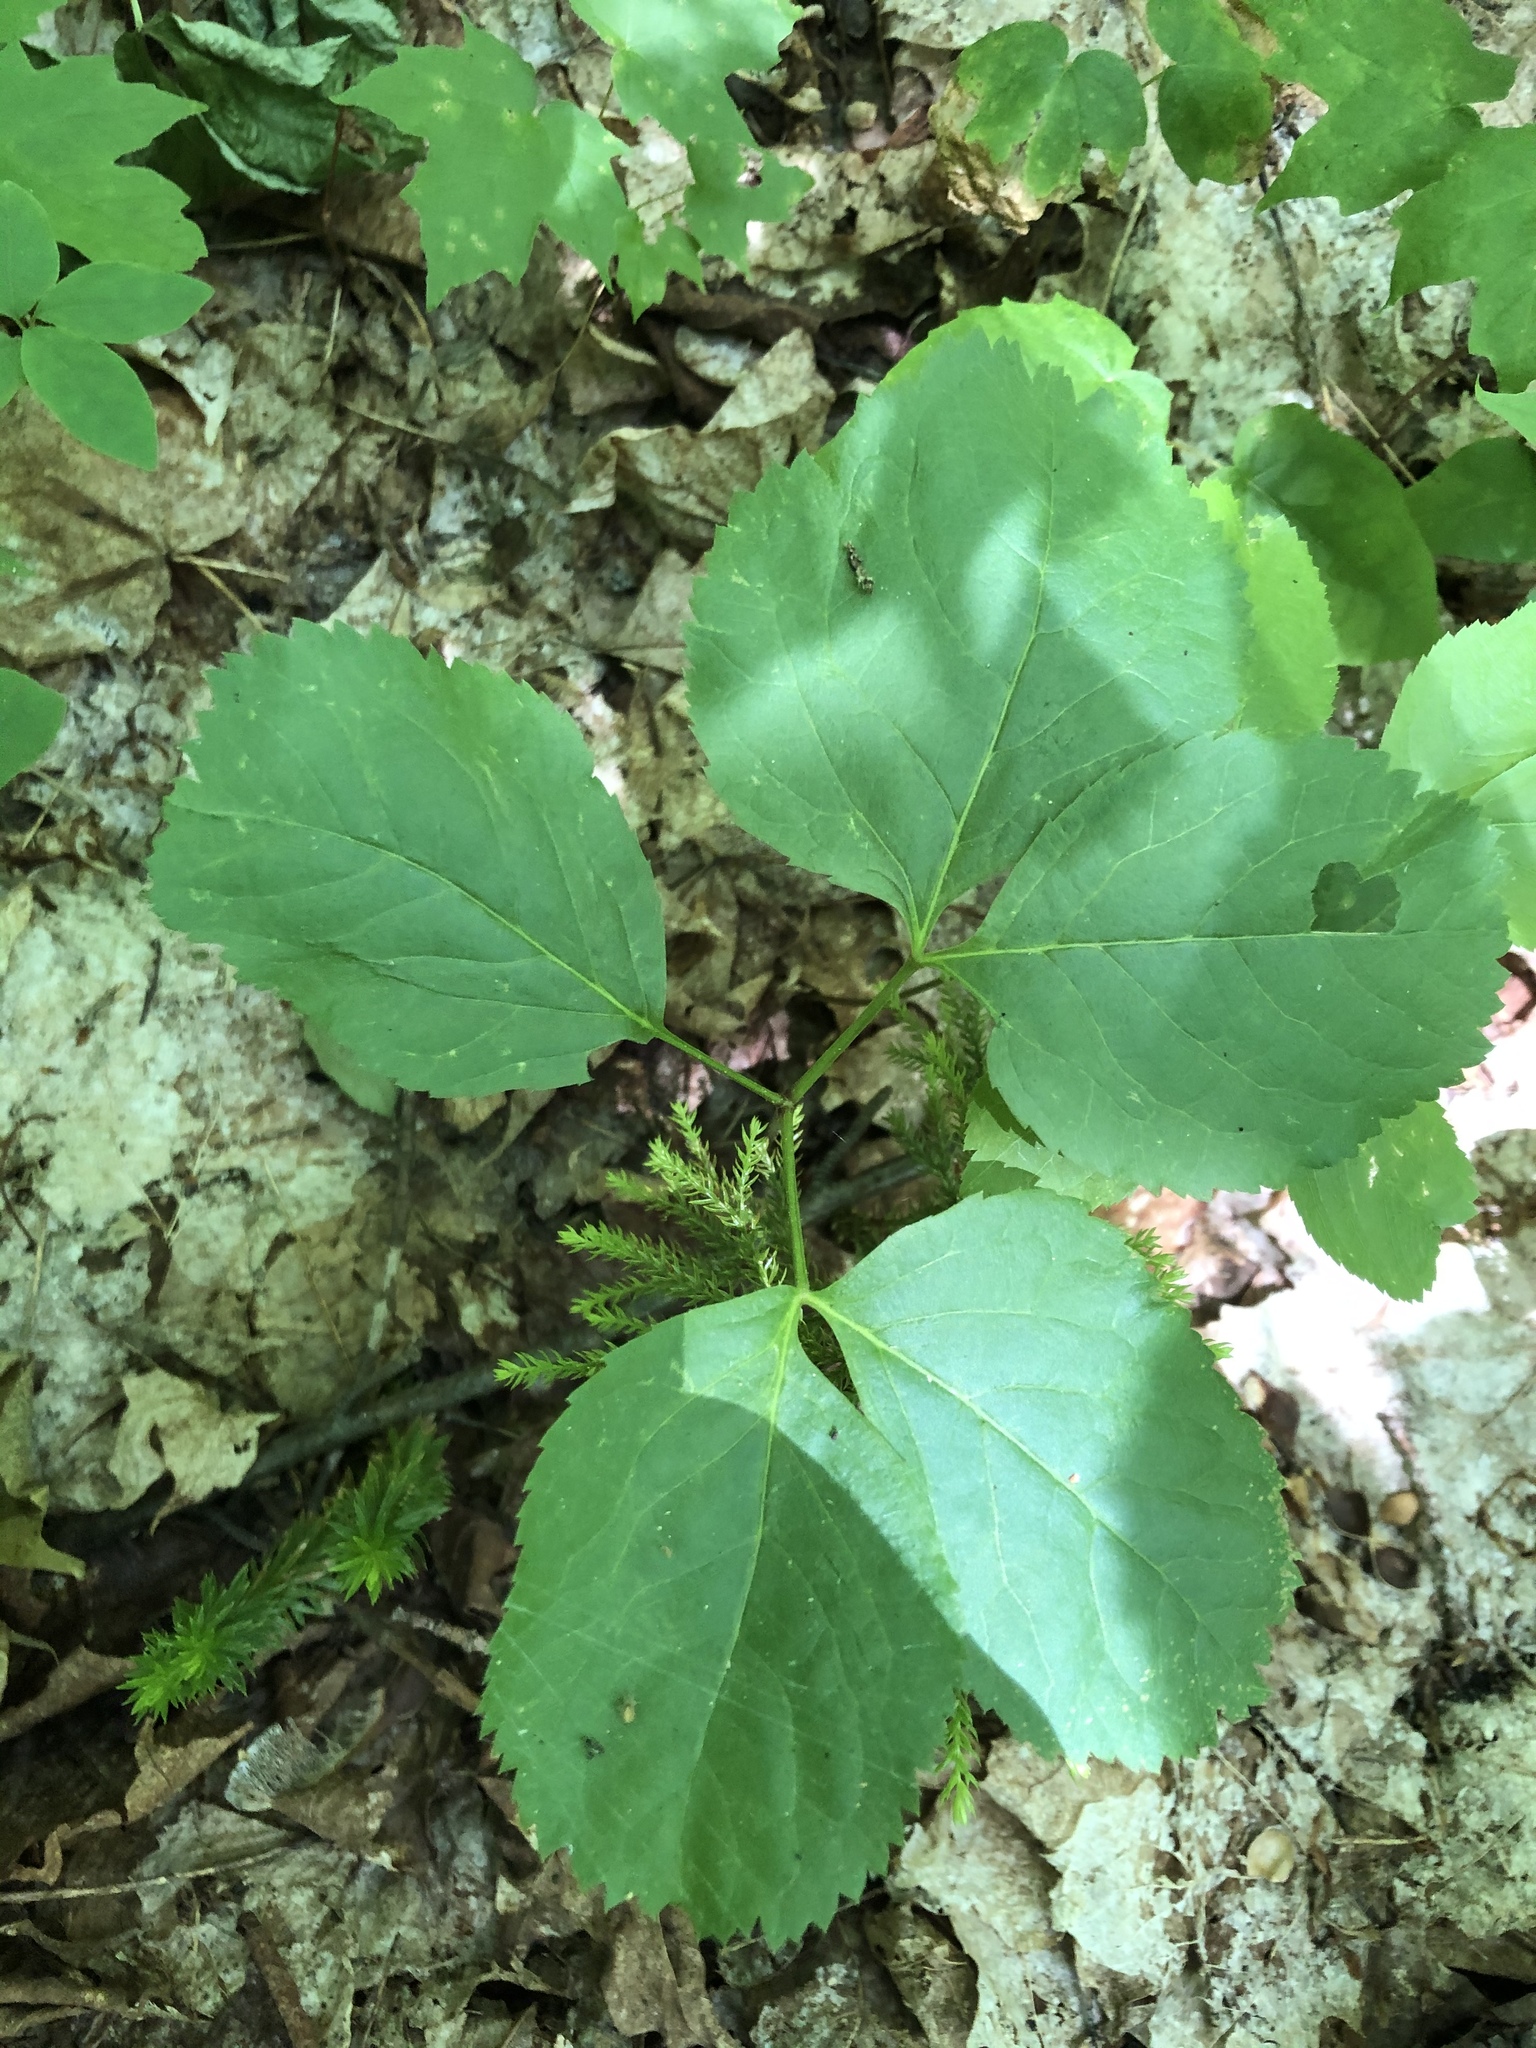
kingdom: Plantae
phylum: Tracheophyta
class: Magnoliopsida
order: Apiales
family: Araliaceae
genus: Aralia
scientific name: Aralia nudicaulis
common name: Wild sarsaparilla
